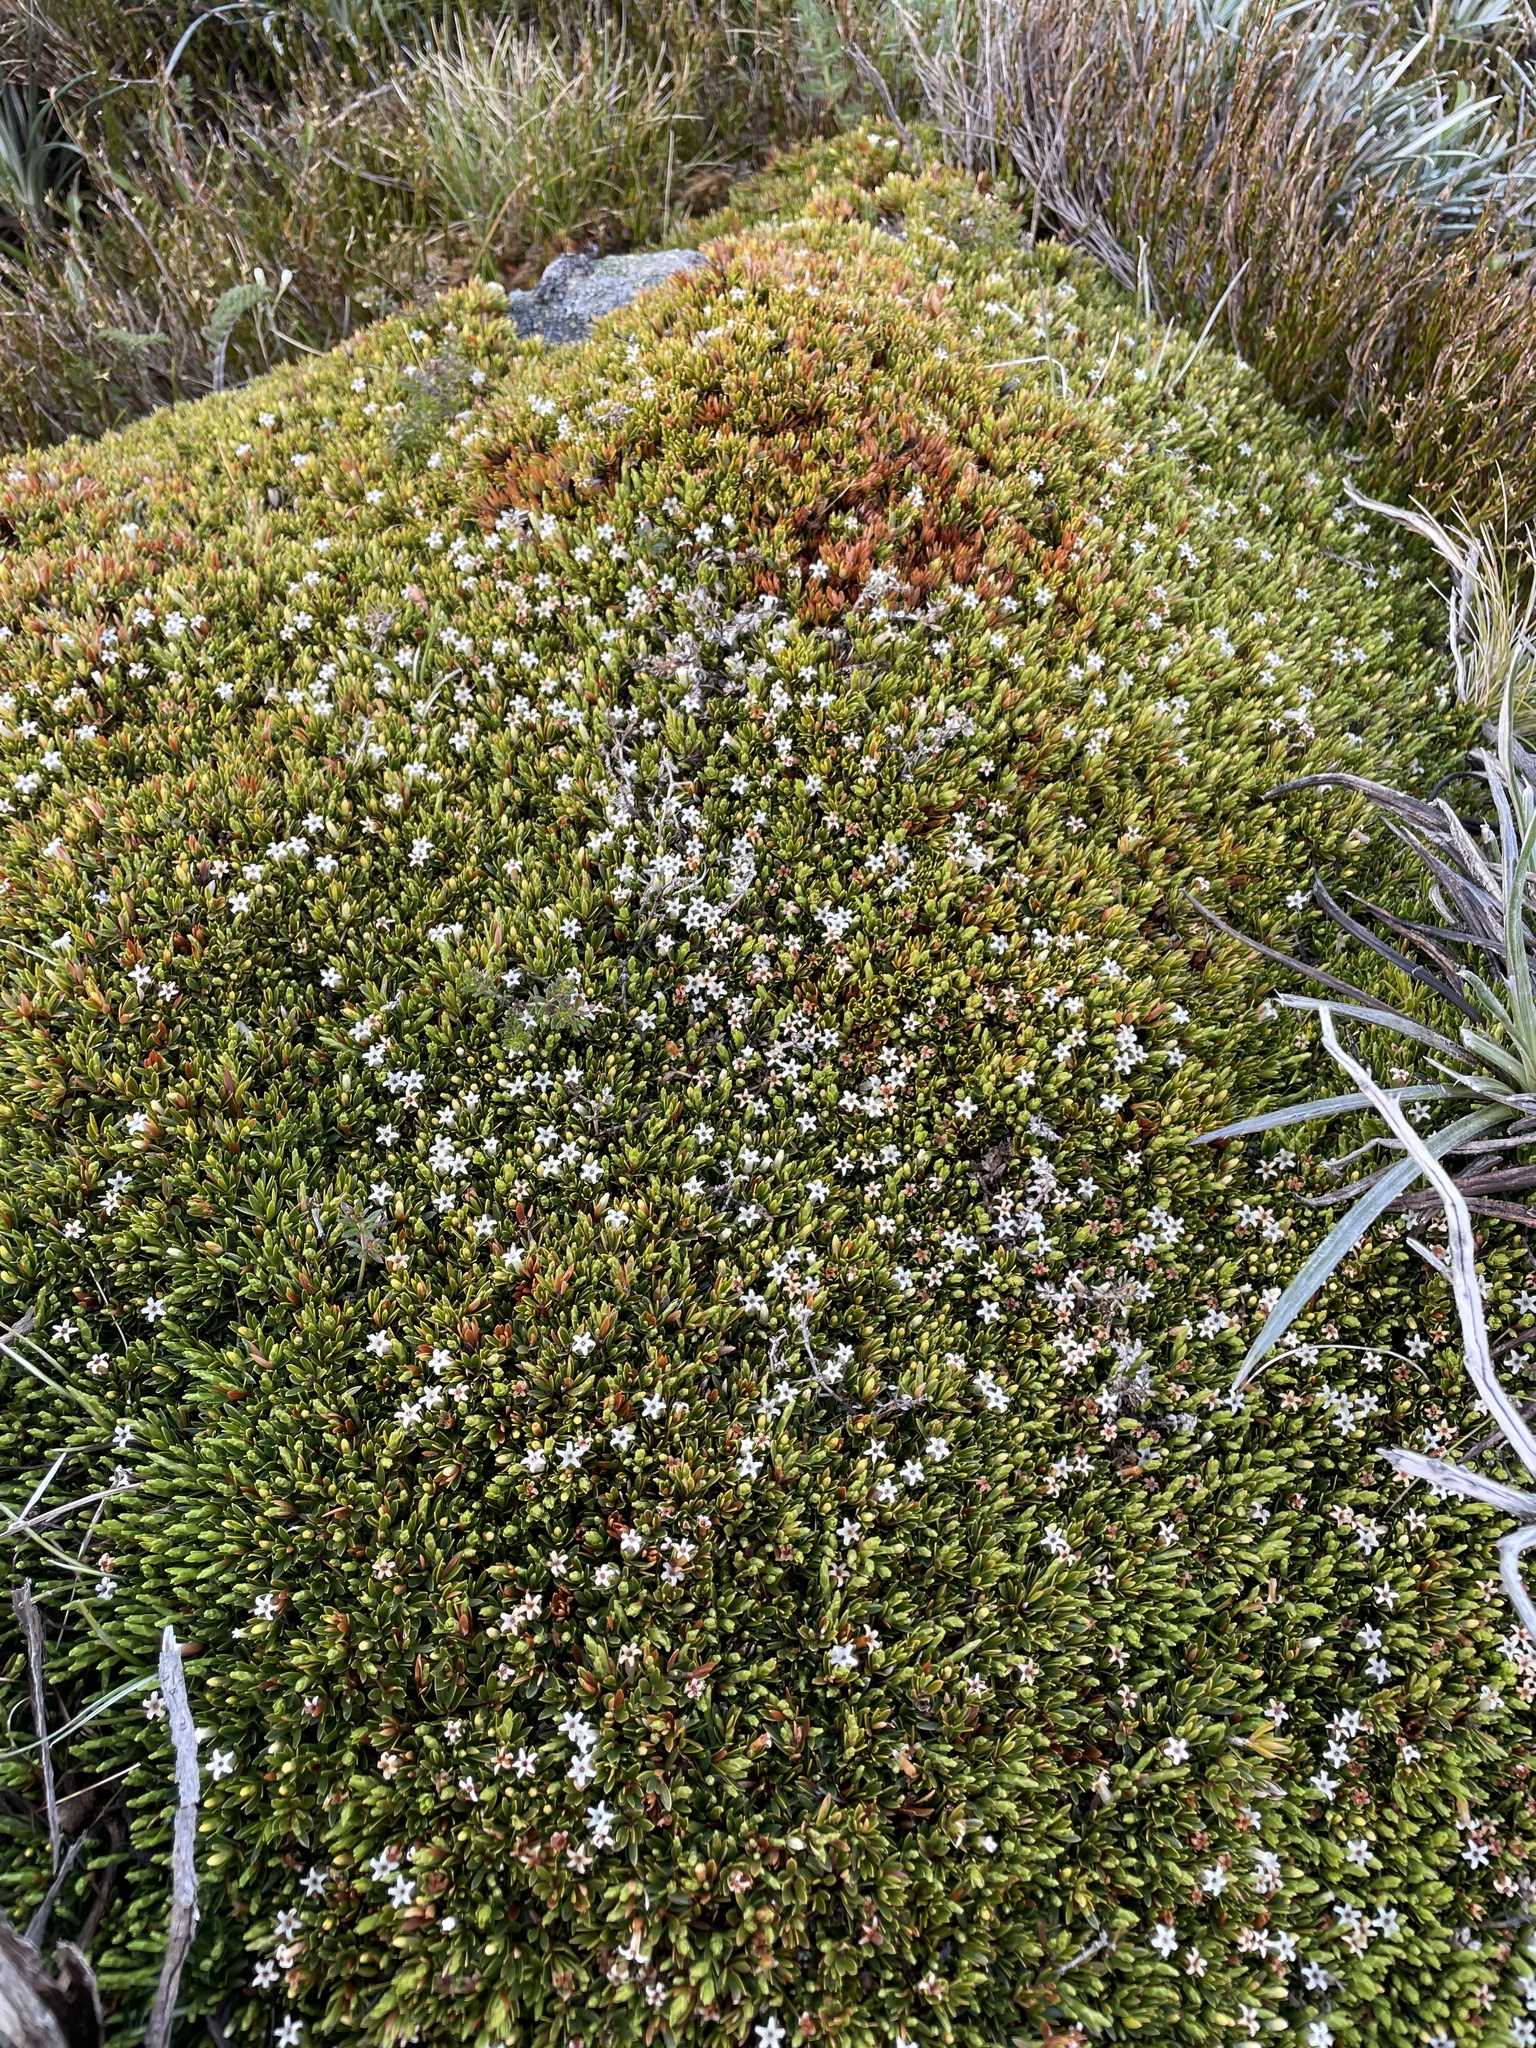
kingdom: Plantae
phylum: Tracheophyta
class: Magnoliopsida
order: Ericales
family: Ericaceae
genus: Pentachondra
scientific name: Pentachondra pumila
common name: Carpet-heath
